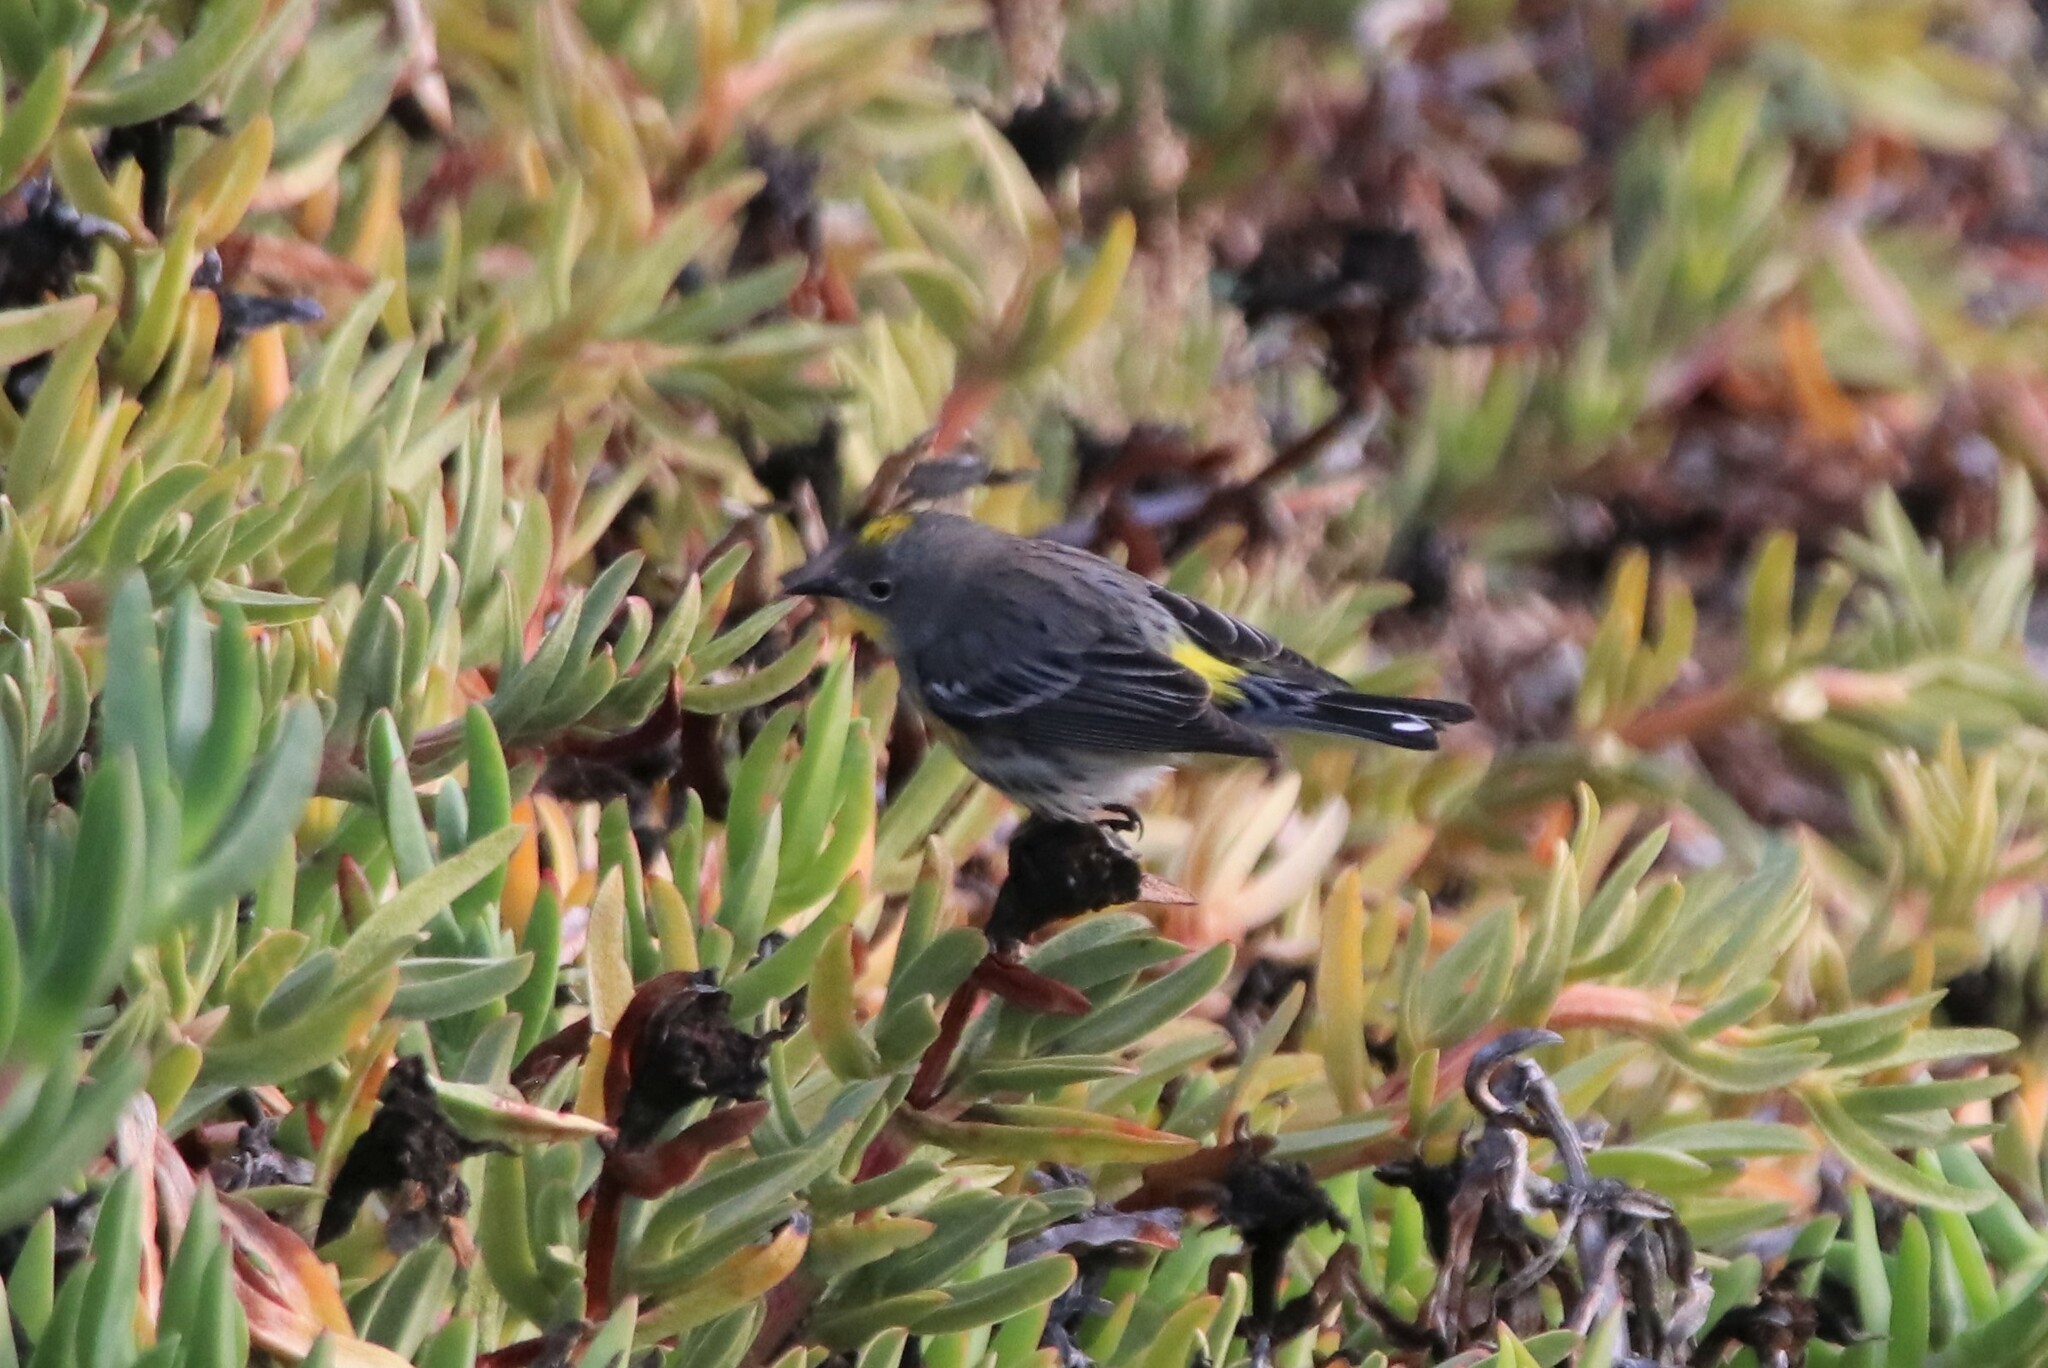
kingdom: Animalia
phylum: Chordata
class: Aves
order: Passeriformes
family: Parulidae
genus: Setophaga
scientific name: Setophaga coronata
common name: Myrtle warbler
